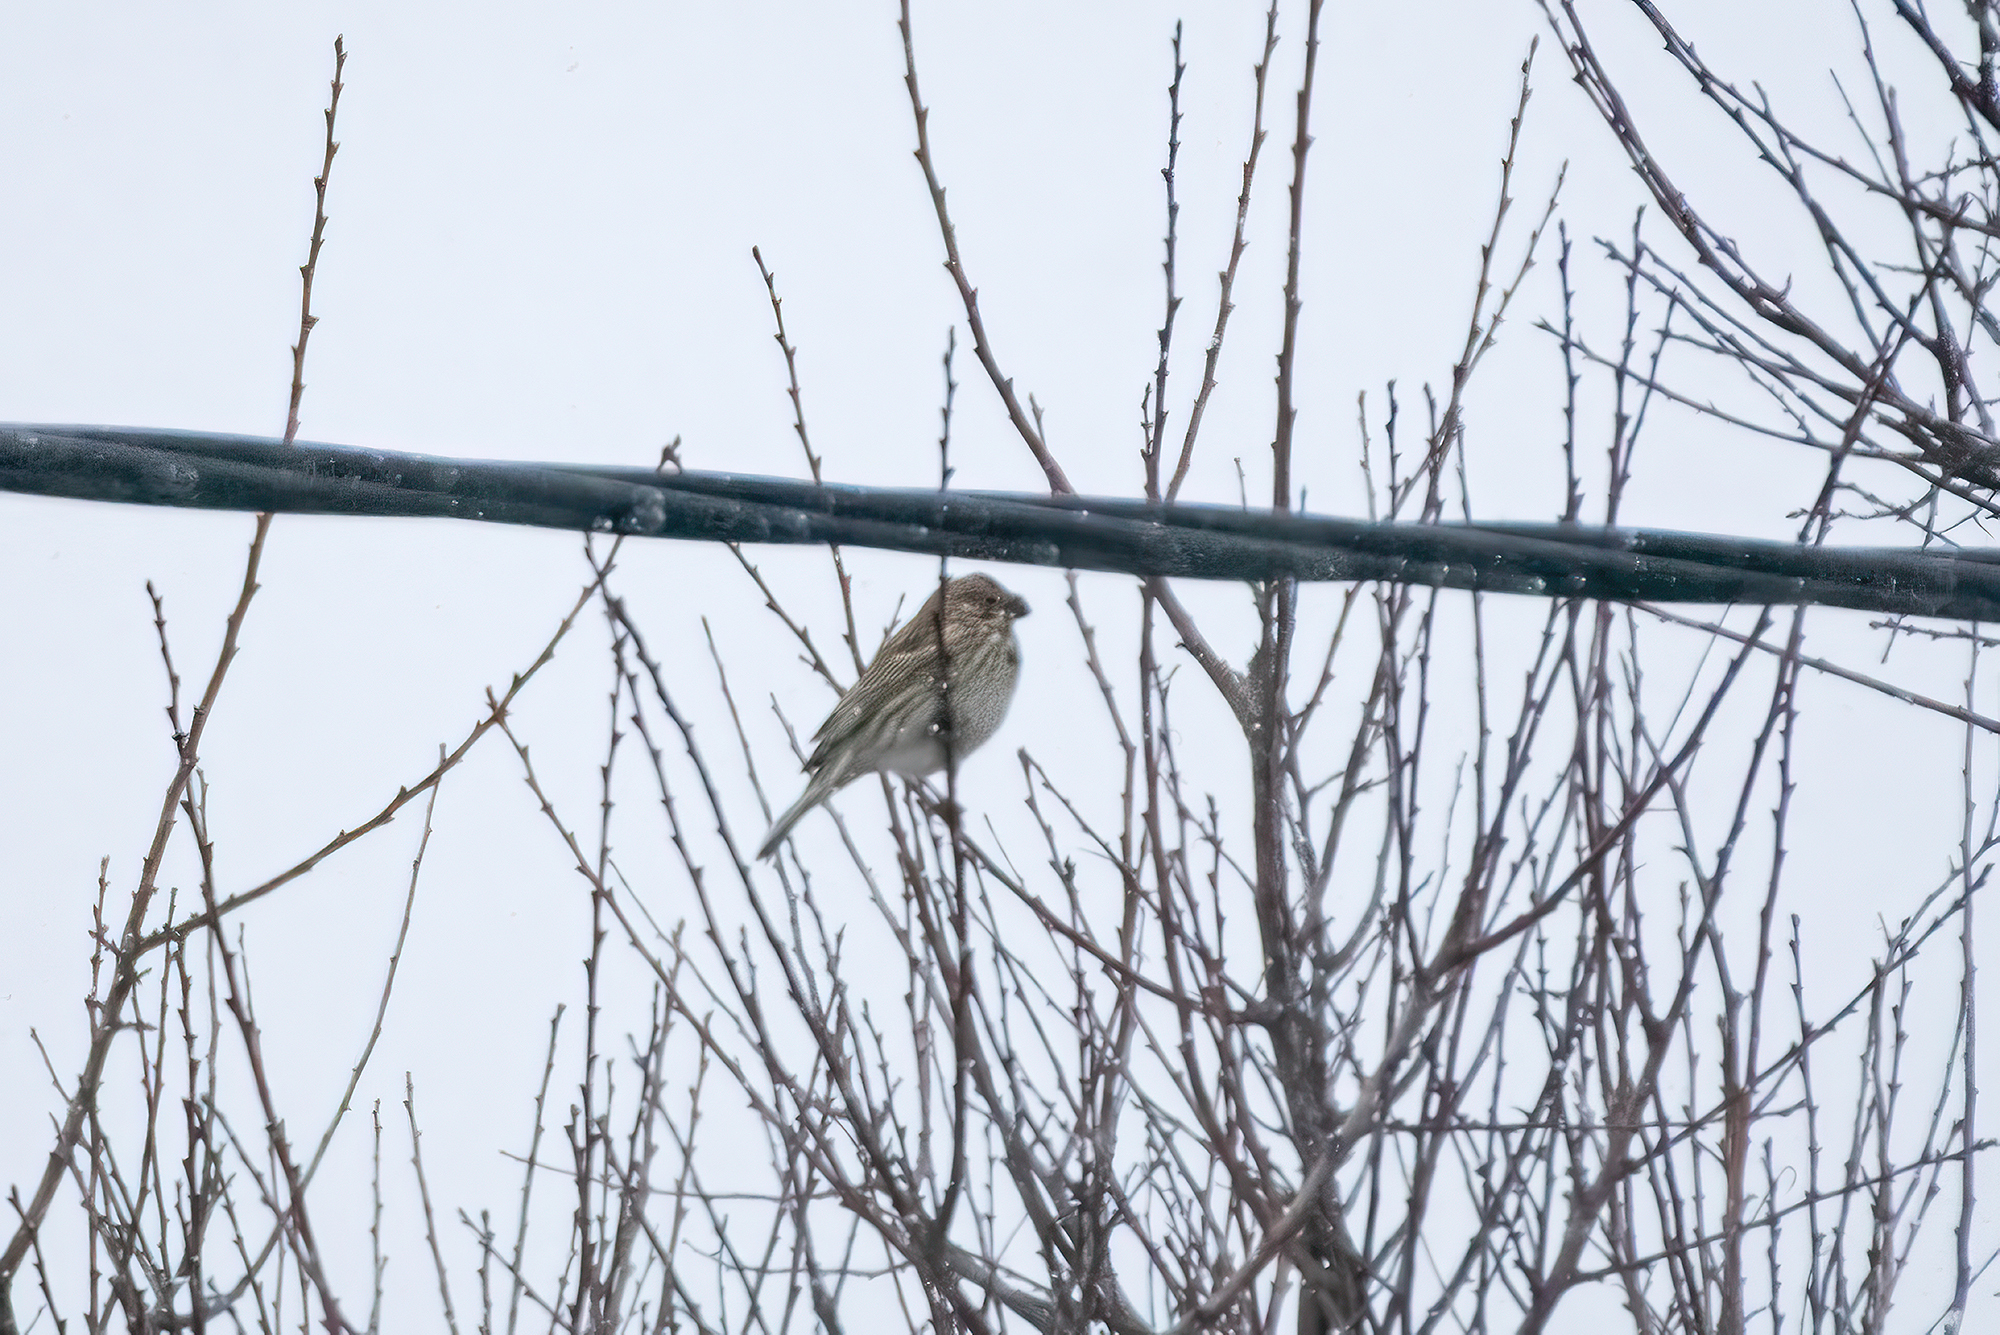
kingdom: Animalia
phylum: Chordata
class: Aves
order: Passeriformes
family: Emberizidae
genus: Emberiza
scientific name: Emberiza calandra
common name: Corn bunting
